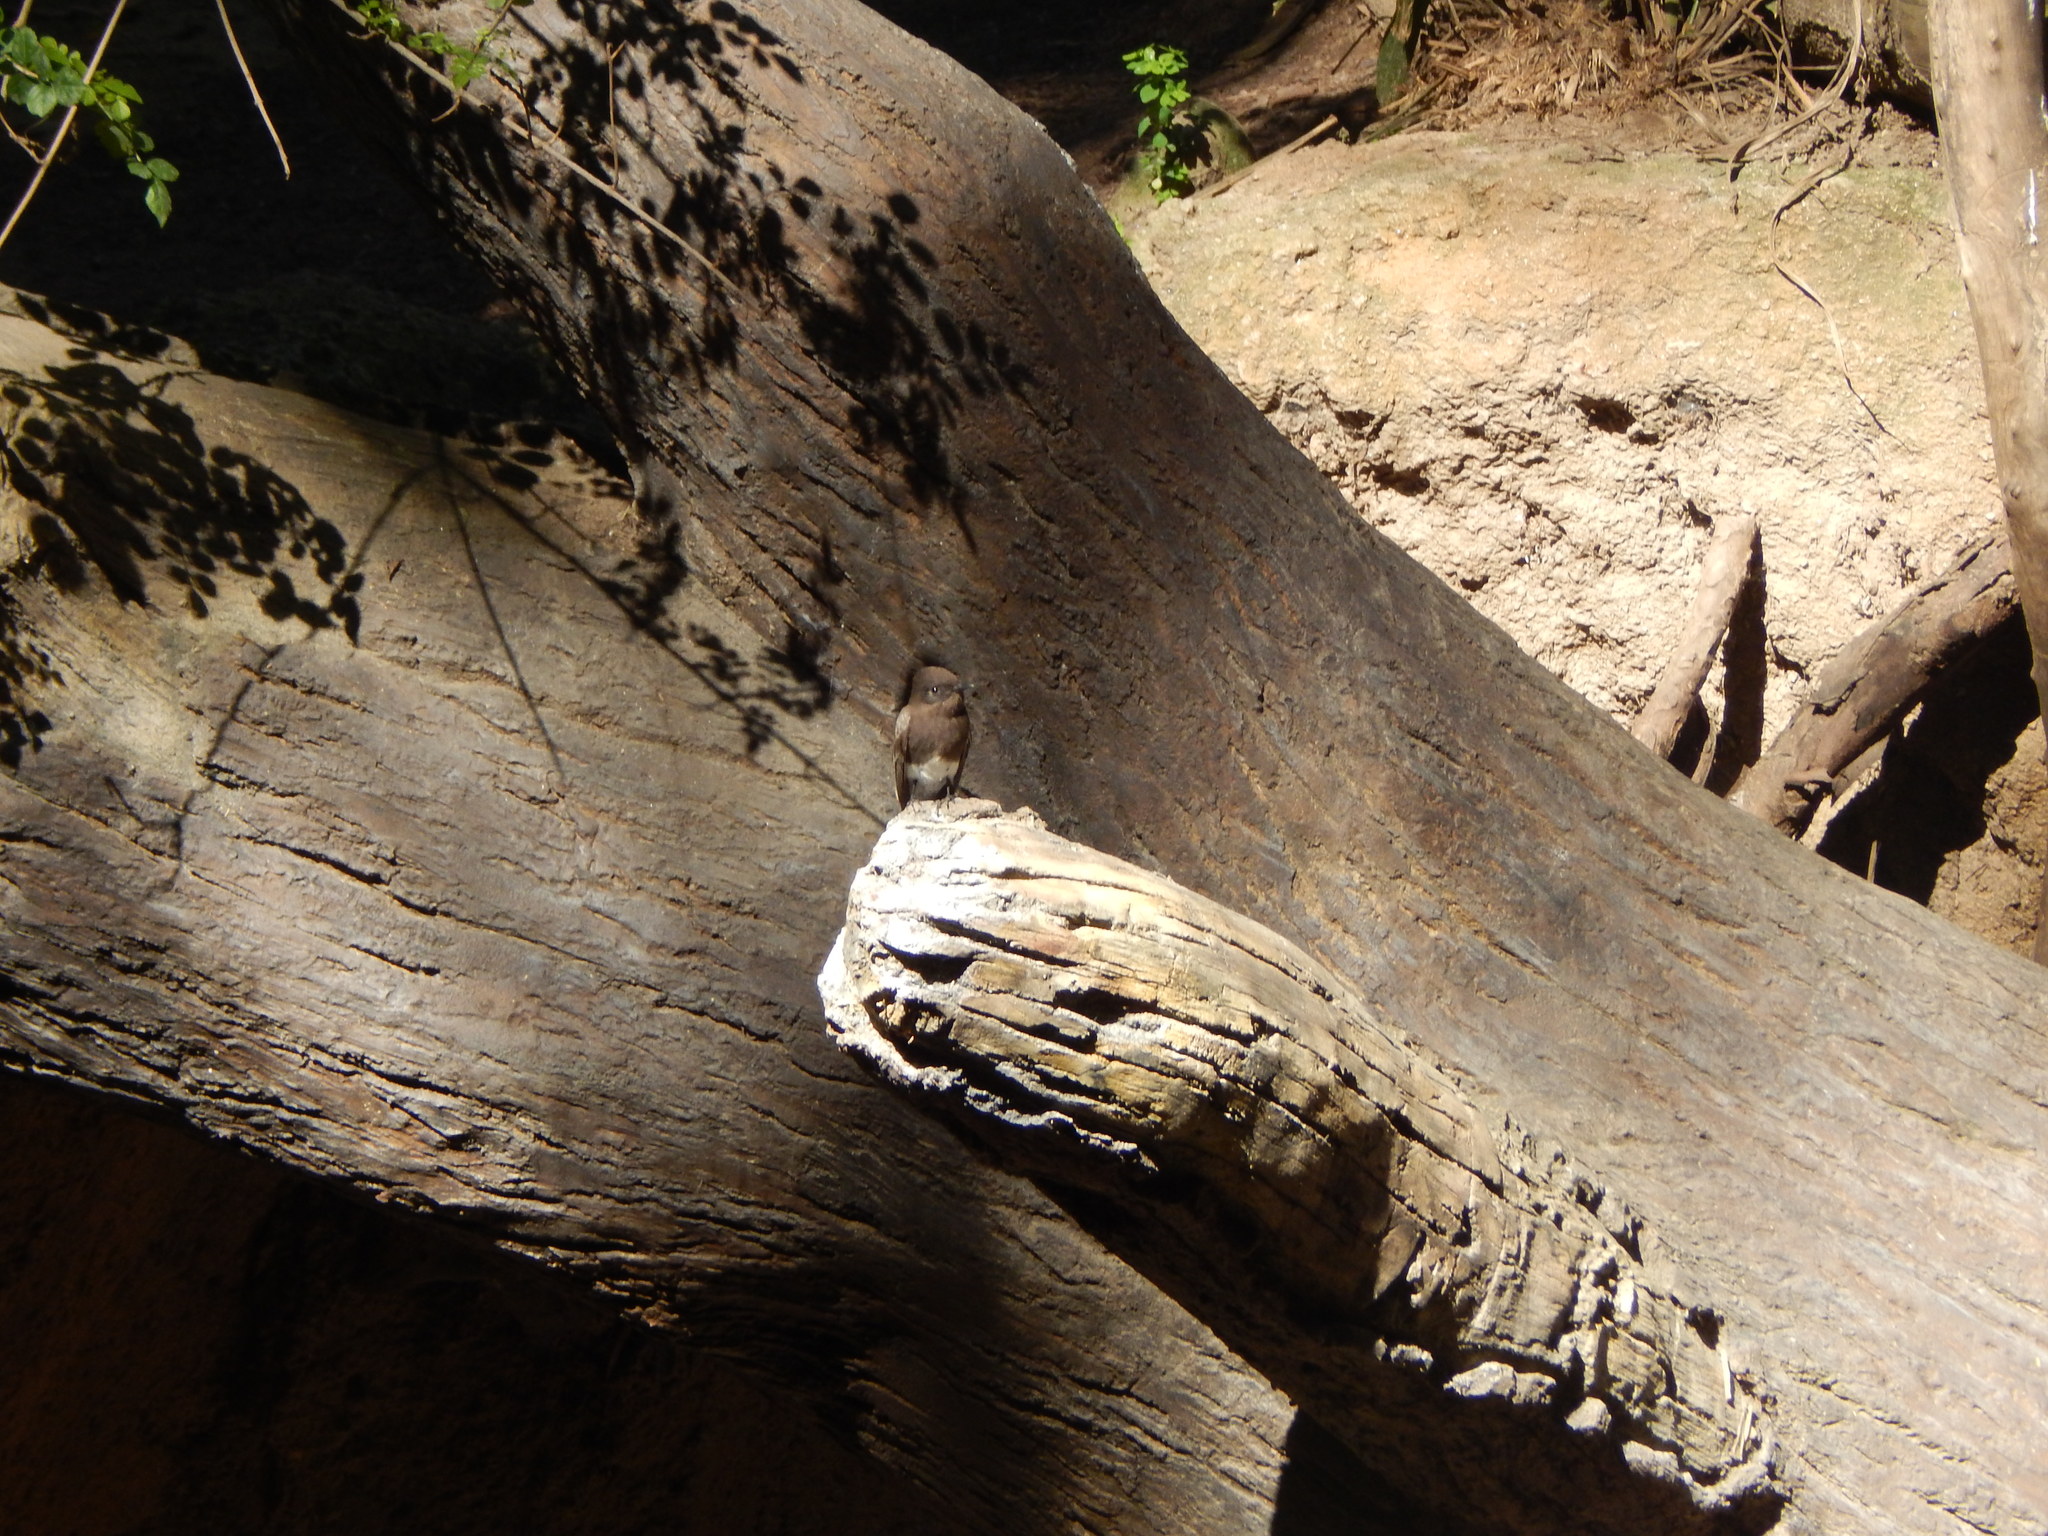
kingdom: Animalia
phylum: Chordata
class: Aves
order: Passeriformes
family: Tyrannidae
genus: Sayornis
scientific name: Sayornis nigricans
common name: Black phoebe
